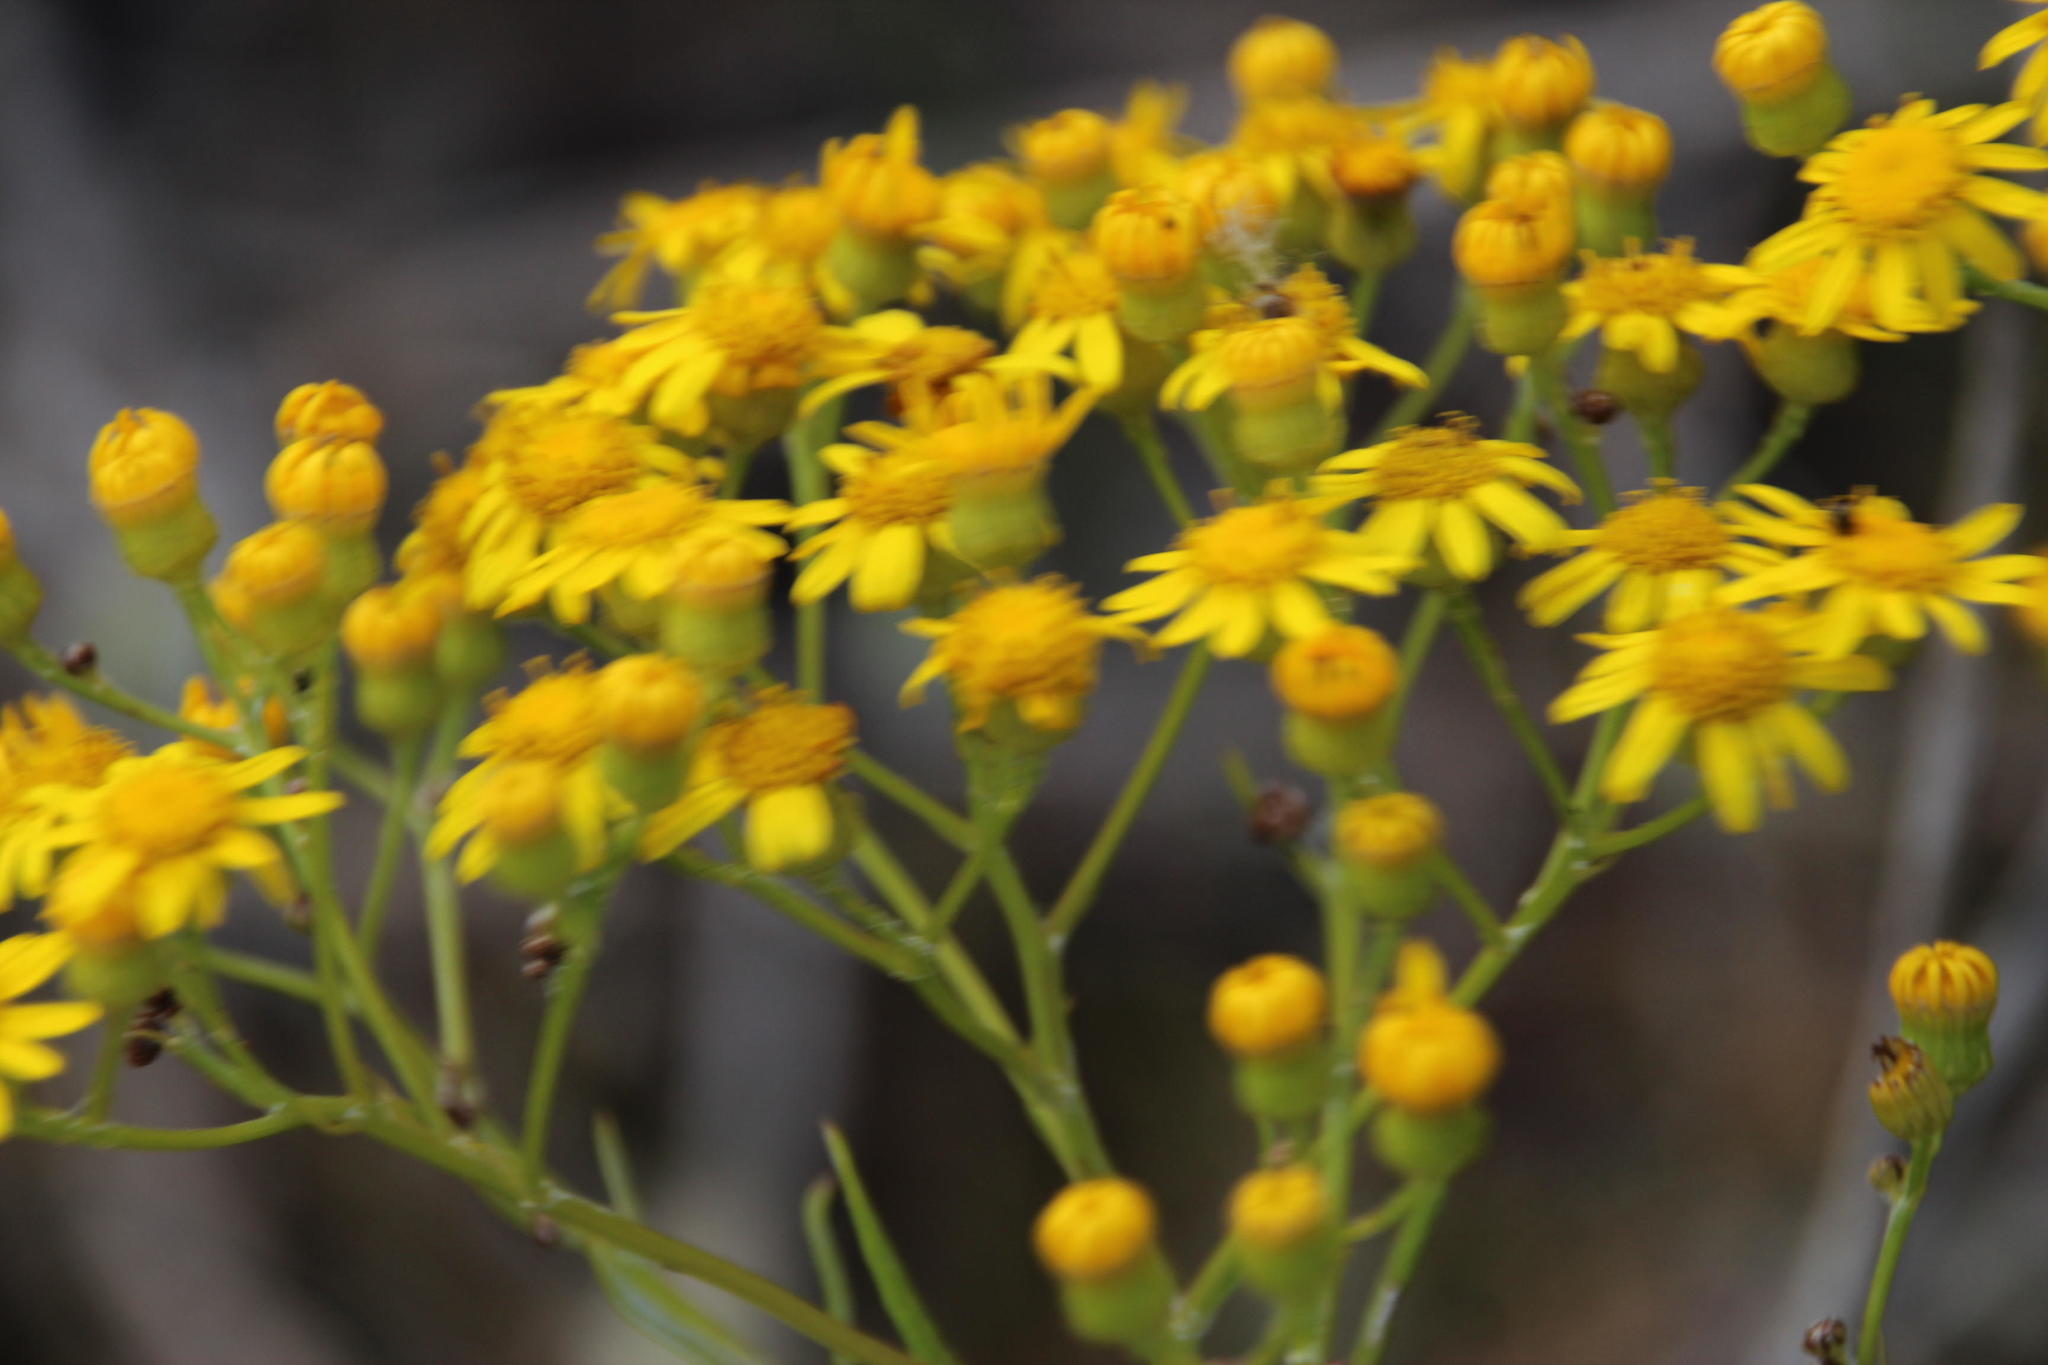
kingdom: Plantae
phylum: Tracheophyta
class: Magnoliopsida
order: Asterales
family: Asteraceae
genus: Senecio
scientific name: Senecio pterophorus
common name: Shoddy ragwort
